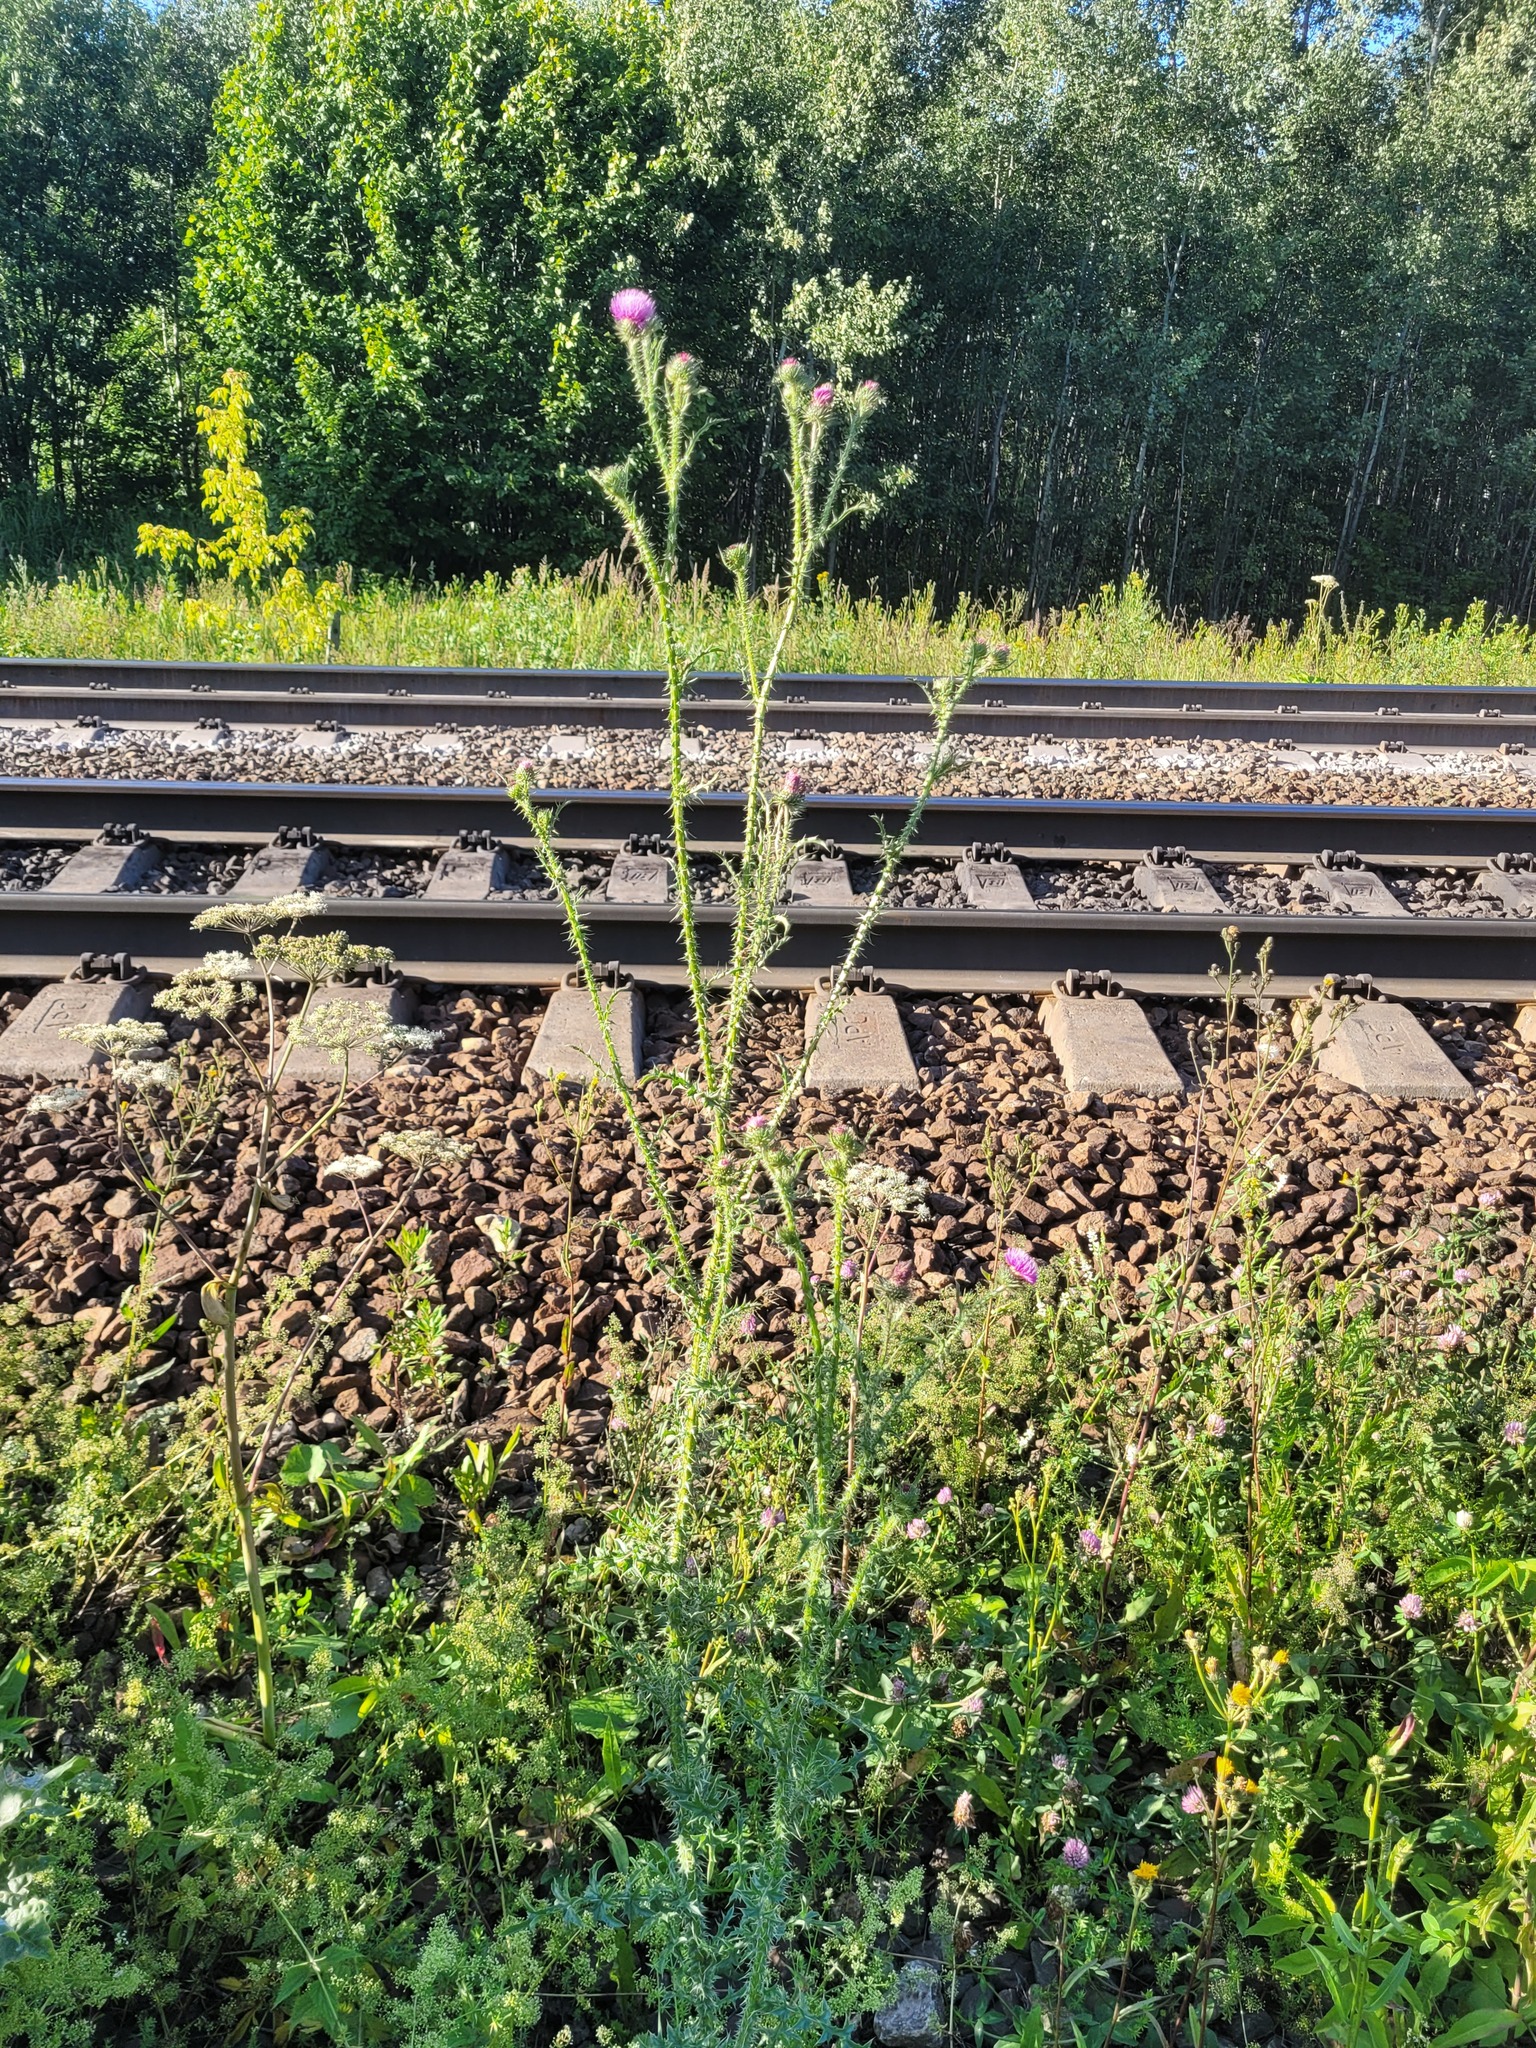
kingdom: Plantae
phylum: Tracheophyta
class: Magnoliopsida
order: Asterales
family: Asteraceae
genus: Carduus
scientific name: Carduus acanthoides
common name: Plumeless thistle
